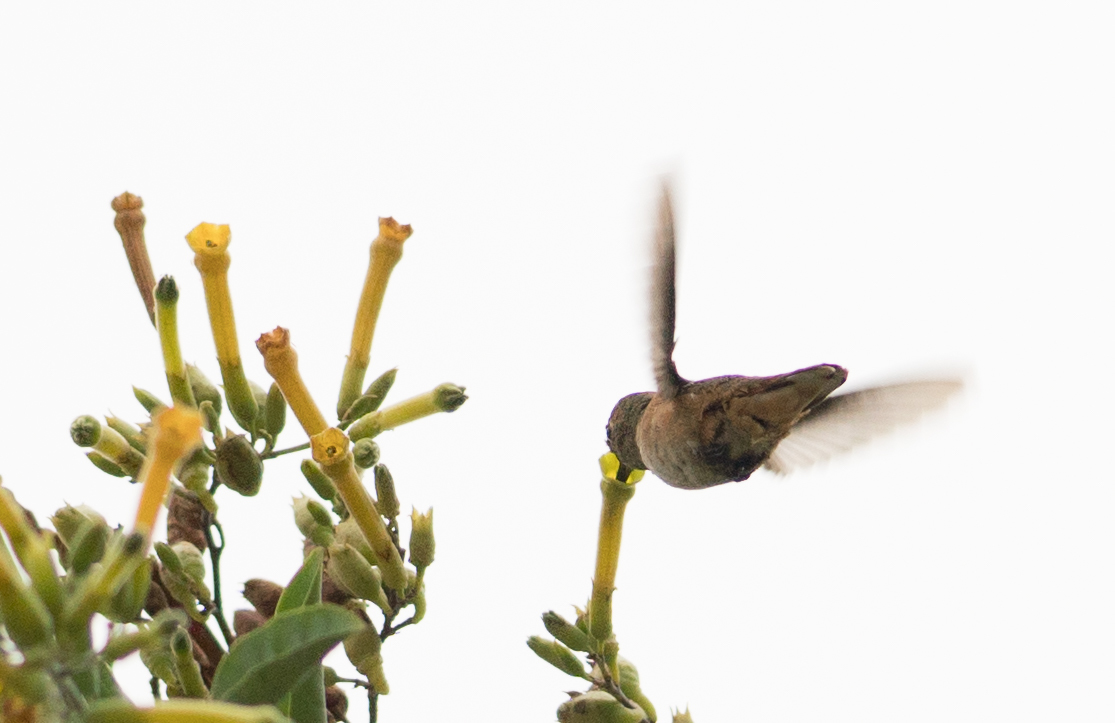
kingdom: Animalia
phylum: Chordata
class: Aves
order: Apodiformes
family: Trochilidae
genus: Selasphorus
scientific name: Selasphorus sasin
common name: Allen's hummingbird
